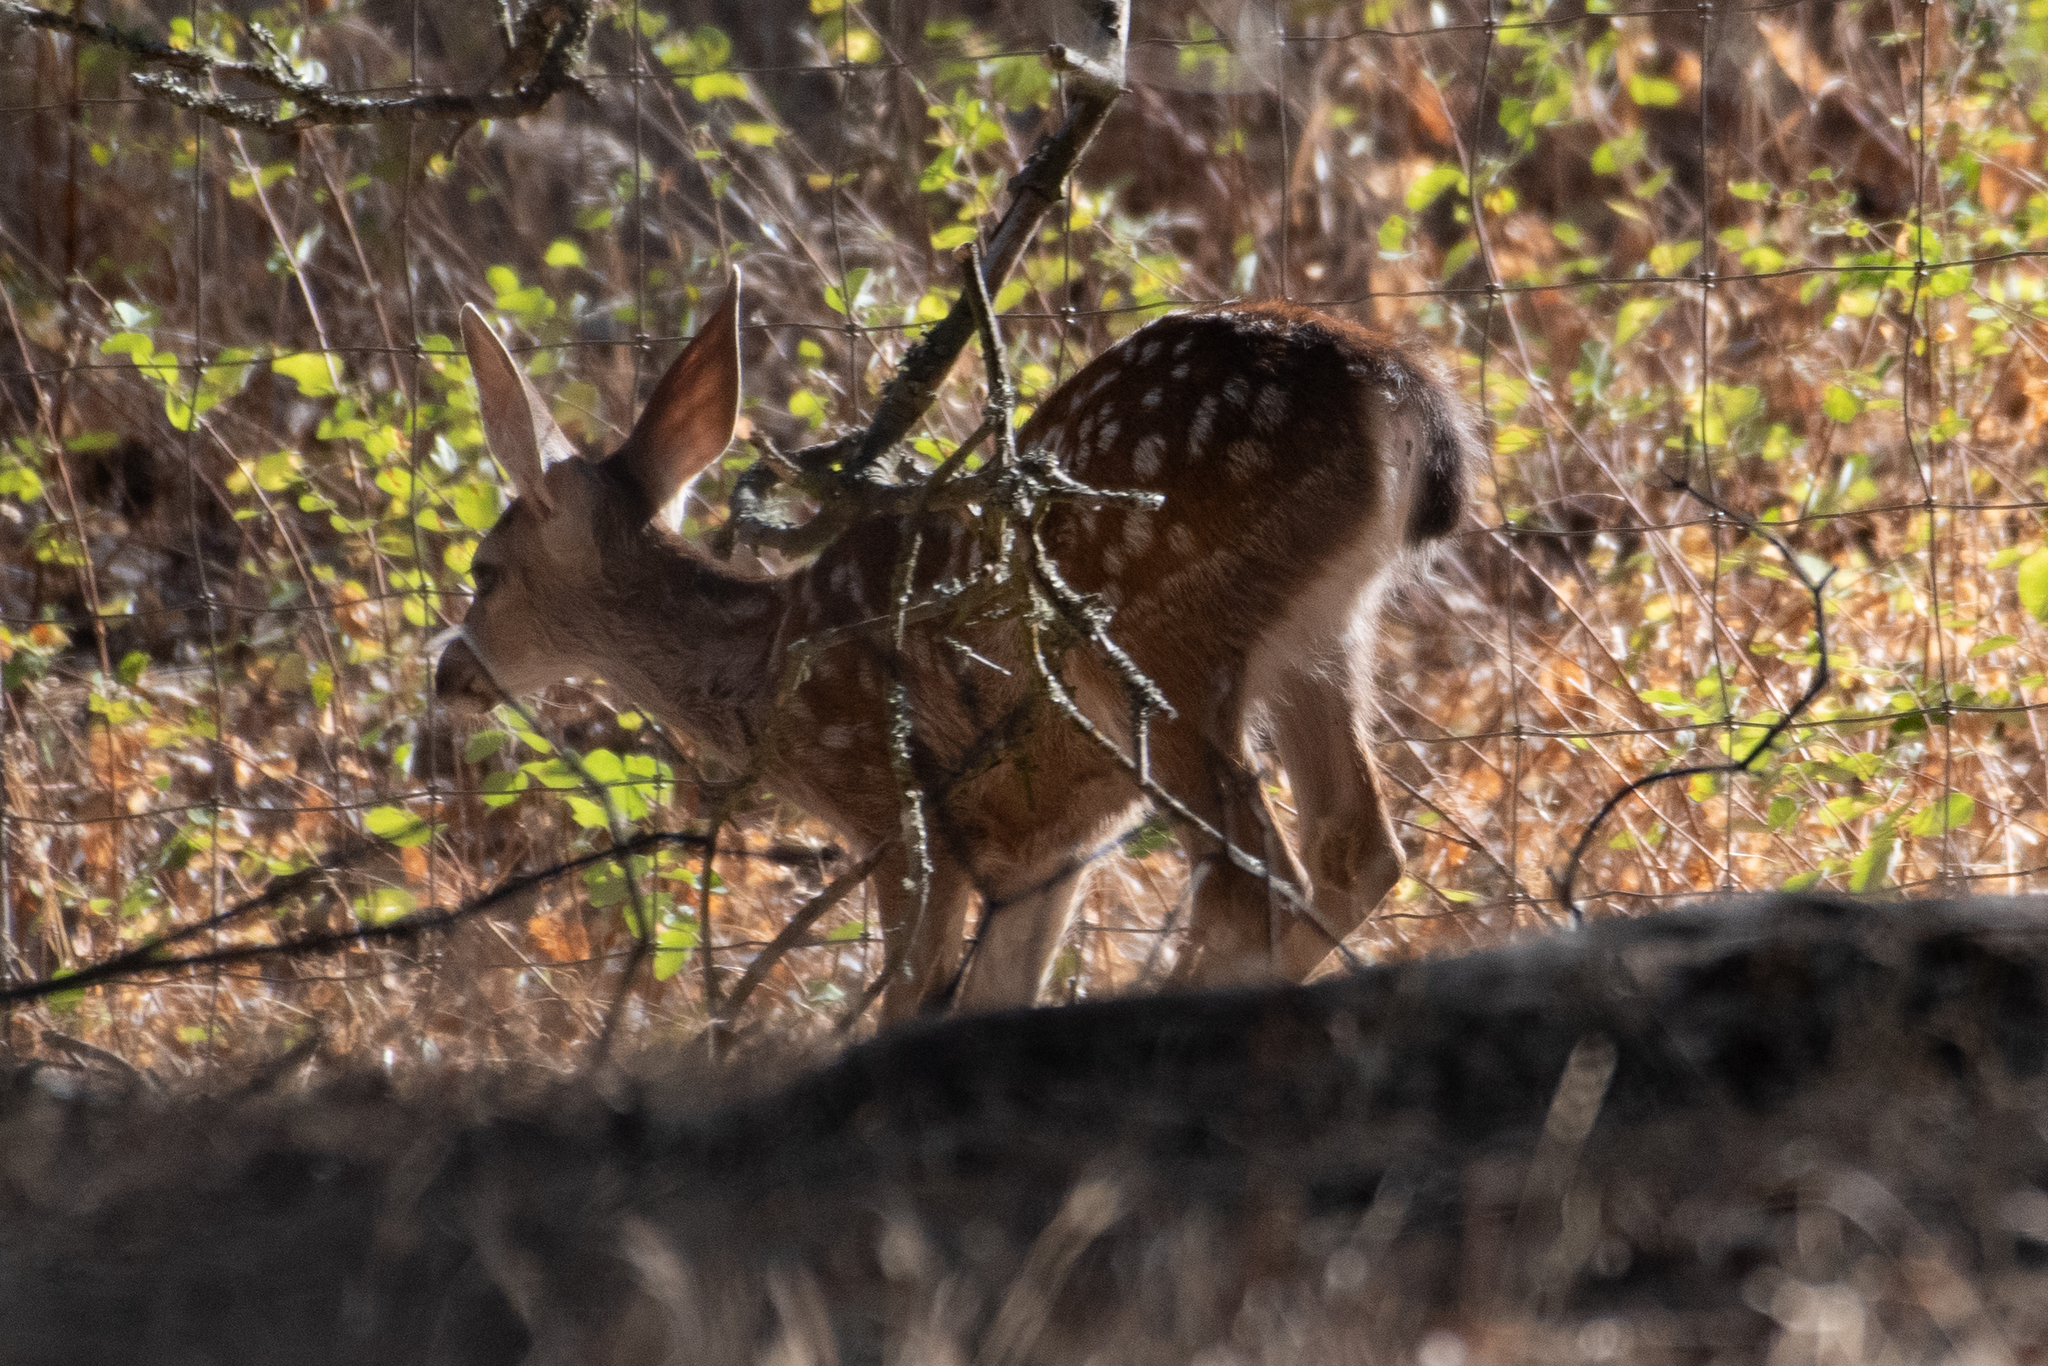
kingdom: Animalia
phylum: Chordata
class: Mammalia
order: Artiodactyla
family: Cervidae
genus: Odocoileus
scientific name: Odocoileus hemionus
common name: Mule deer
